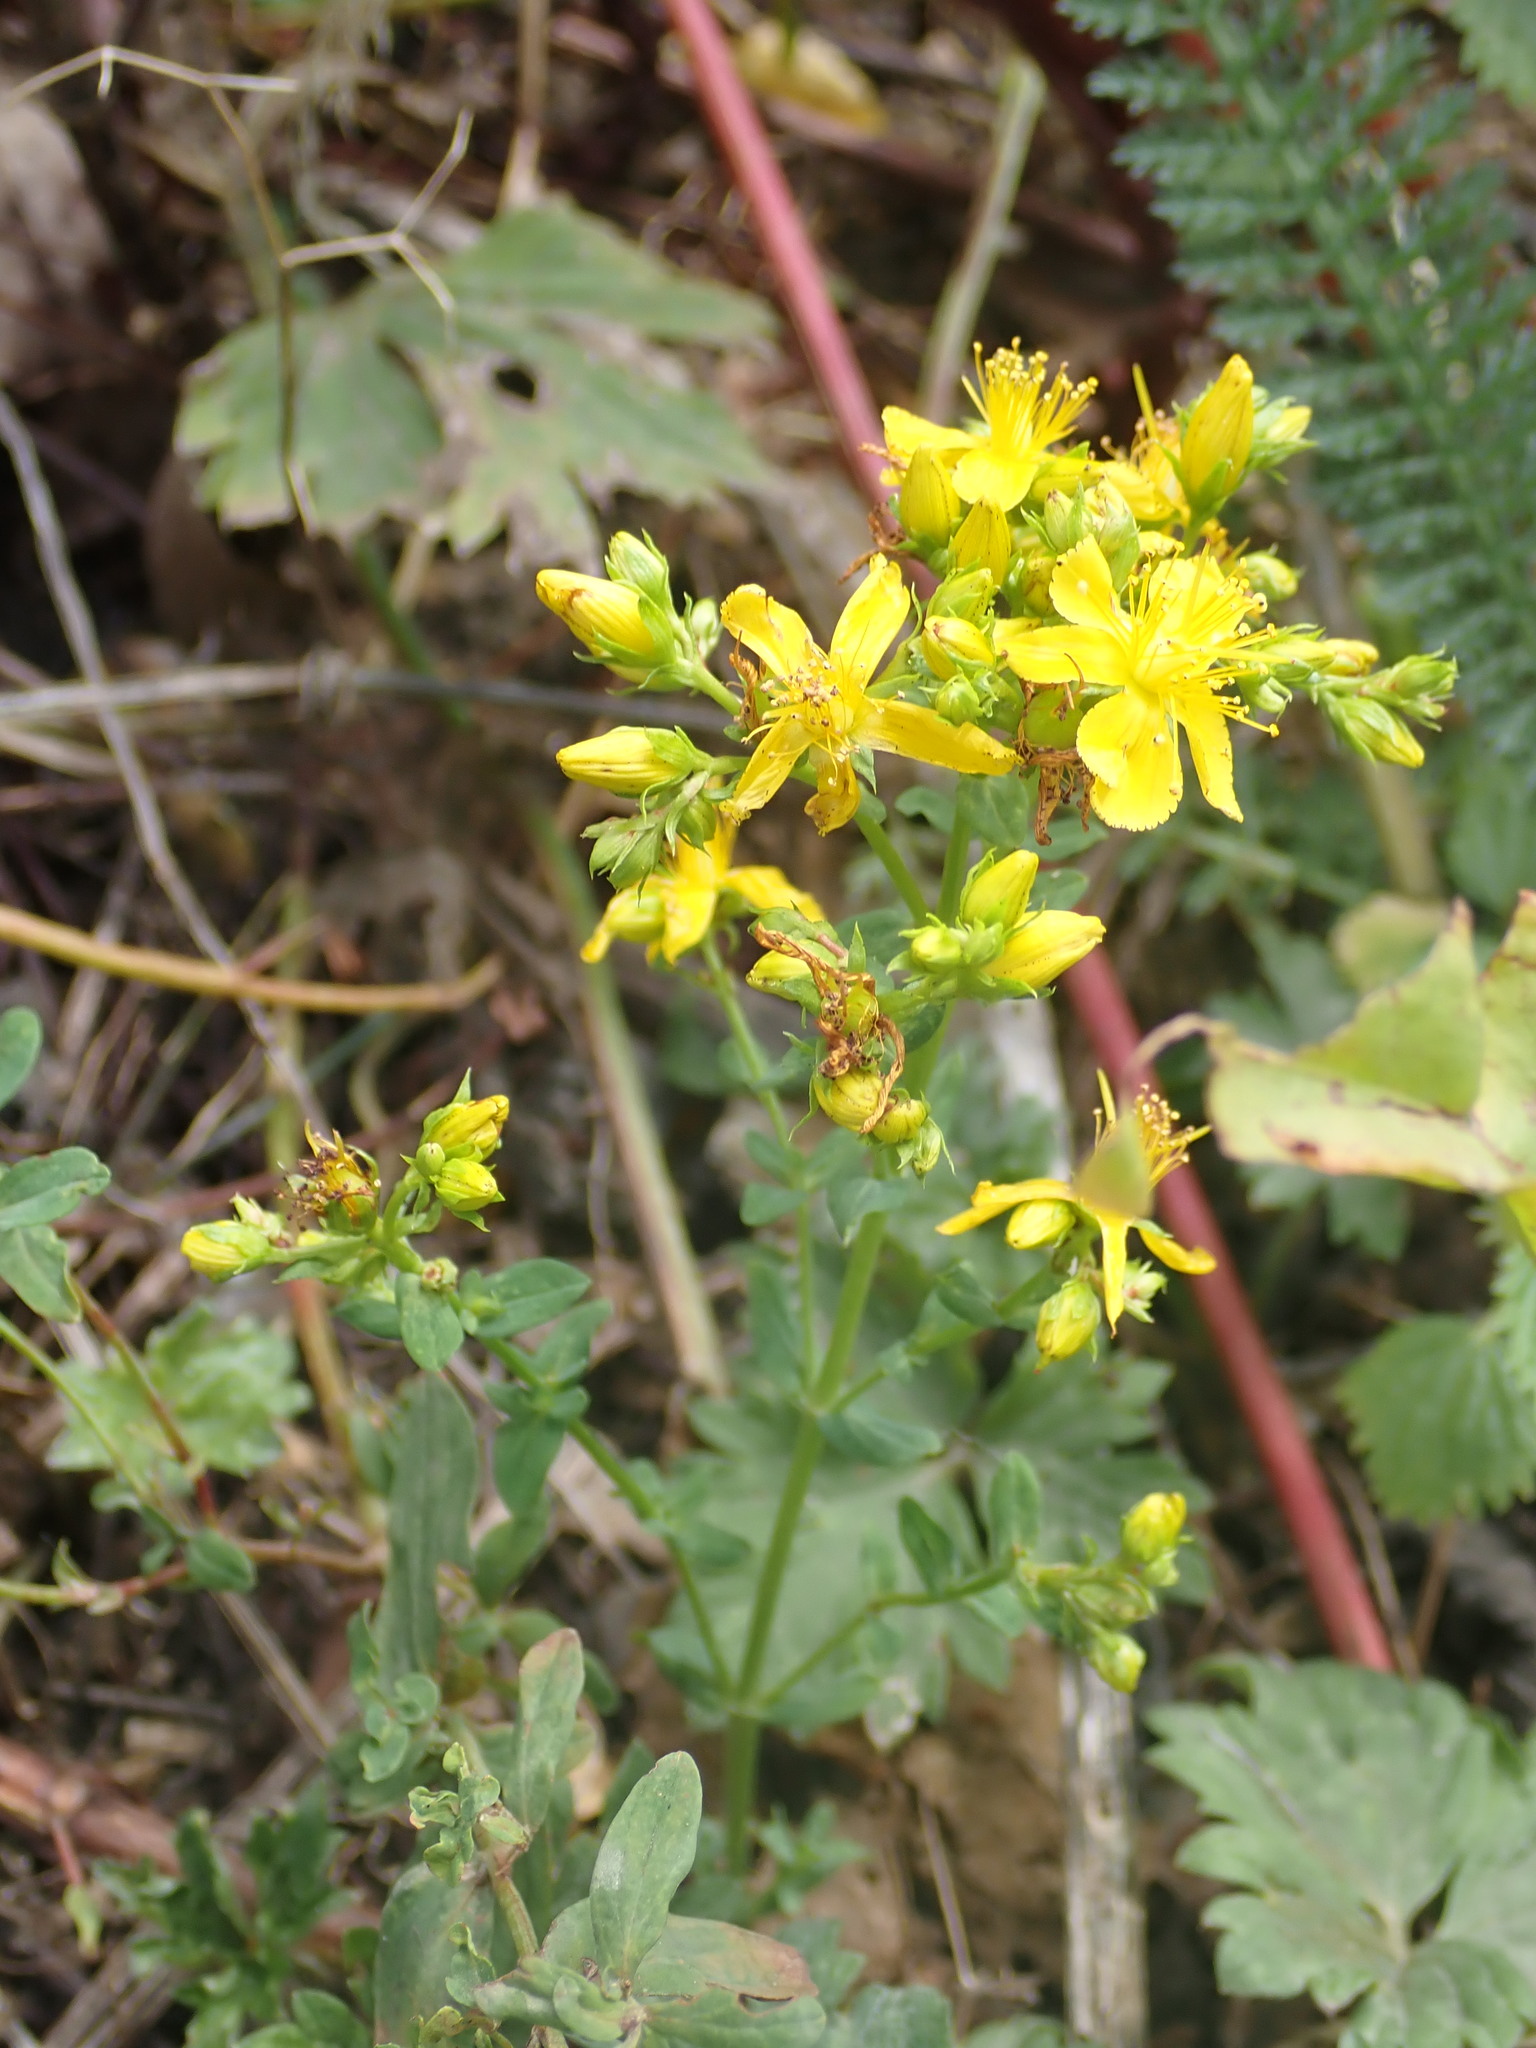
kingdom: Plantae
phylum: Tracheophyta
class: Magnoliopsida
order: Malpighiales
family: Hypericaceae
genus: Hypericum
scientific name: Hypericum perforatum
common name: Common st. johnswort
